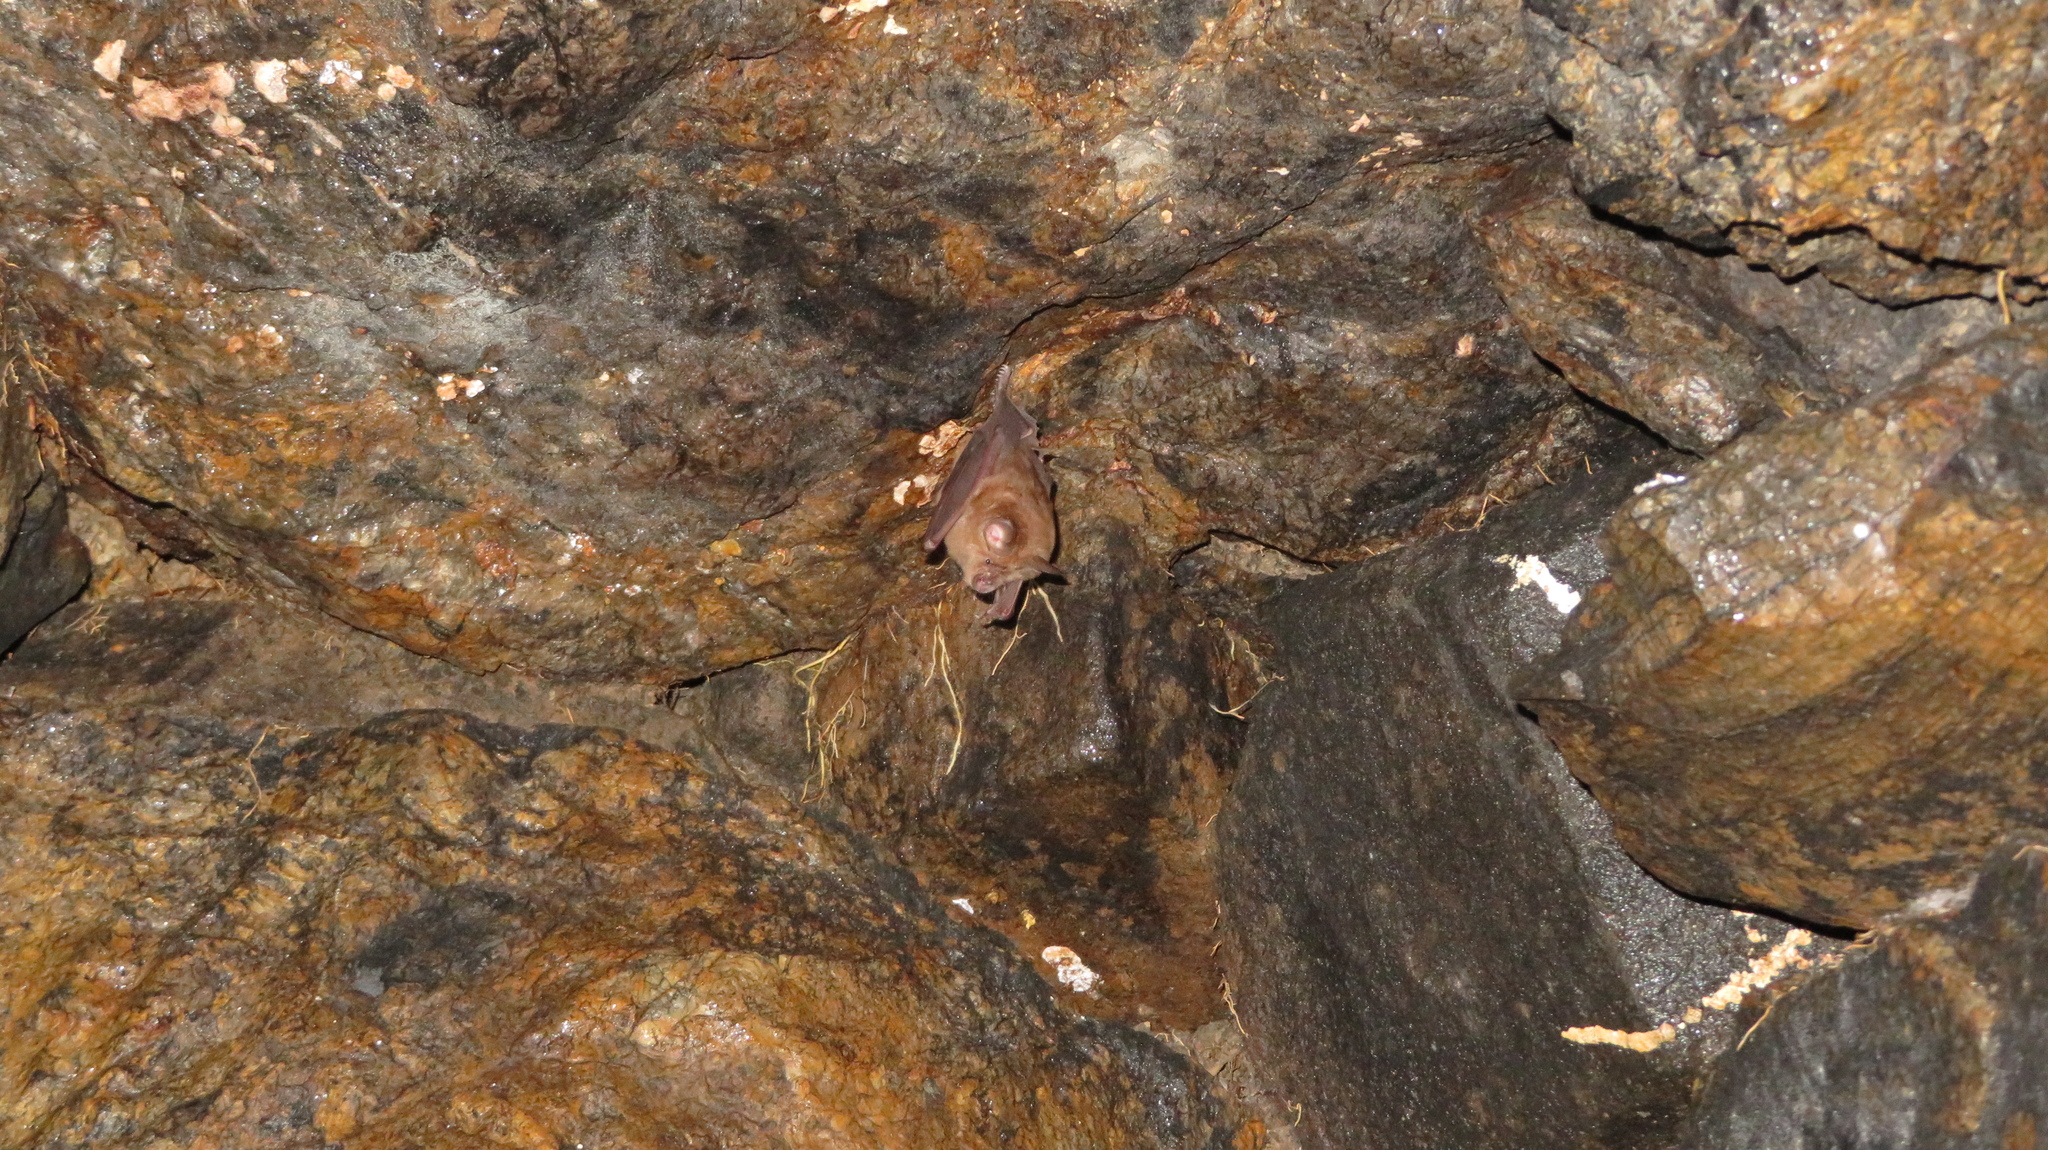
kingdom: Animalia
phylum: Chordata
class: Mammalia
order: Chiroptera
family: Rhinolophidae
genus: Rhinolophus
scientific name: Rhinolophus nippon
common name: Greater japanese horseshoe bat
